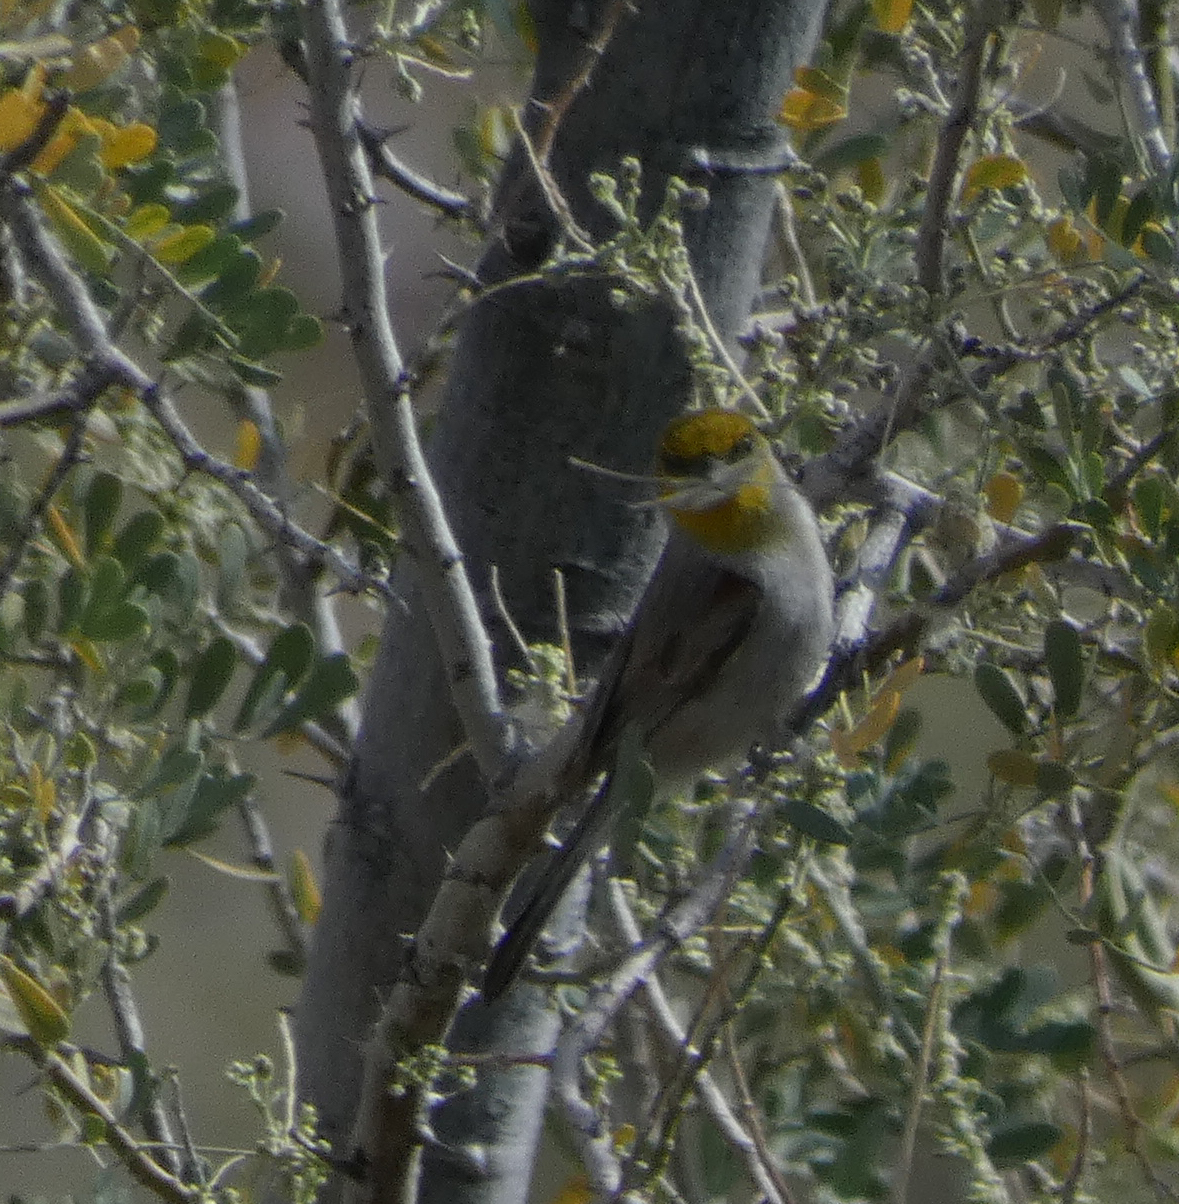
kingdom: Animalia
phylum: Chordata
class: Aves
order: Passeriformes
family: Remizidae
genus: Auriparus
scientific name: Auriparus flaviceps
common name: Verdin
